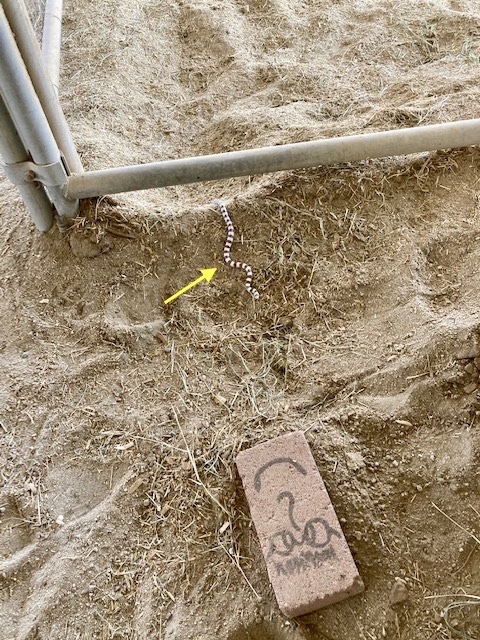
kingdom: Animalia
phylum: Chordata
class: Squamata
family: Colubridae
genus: Sonora
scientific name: Sonora occipitalis
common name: Western shovelnose snake
